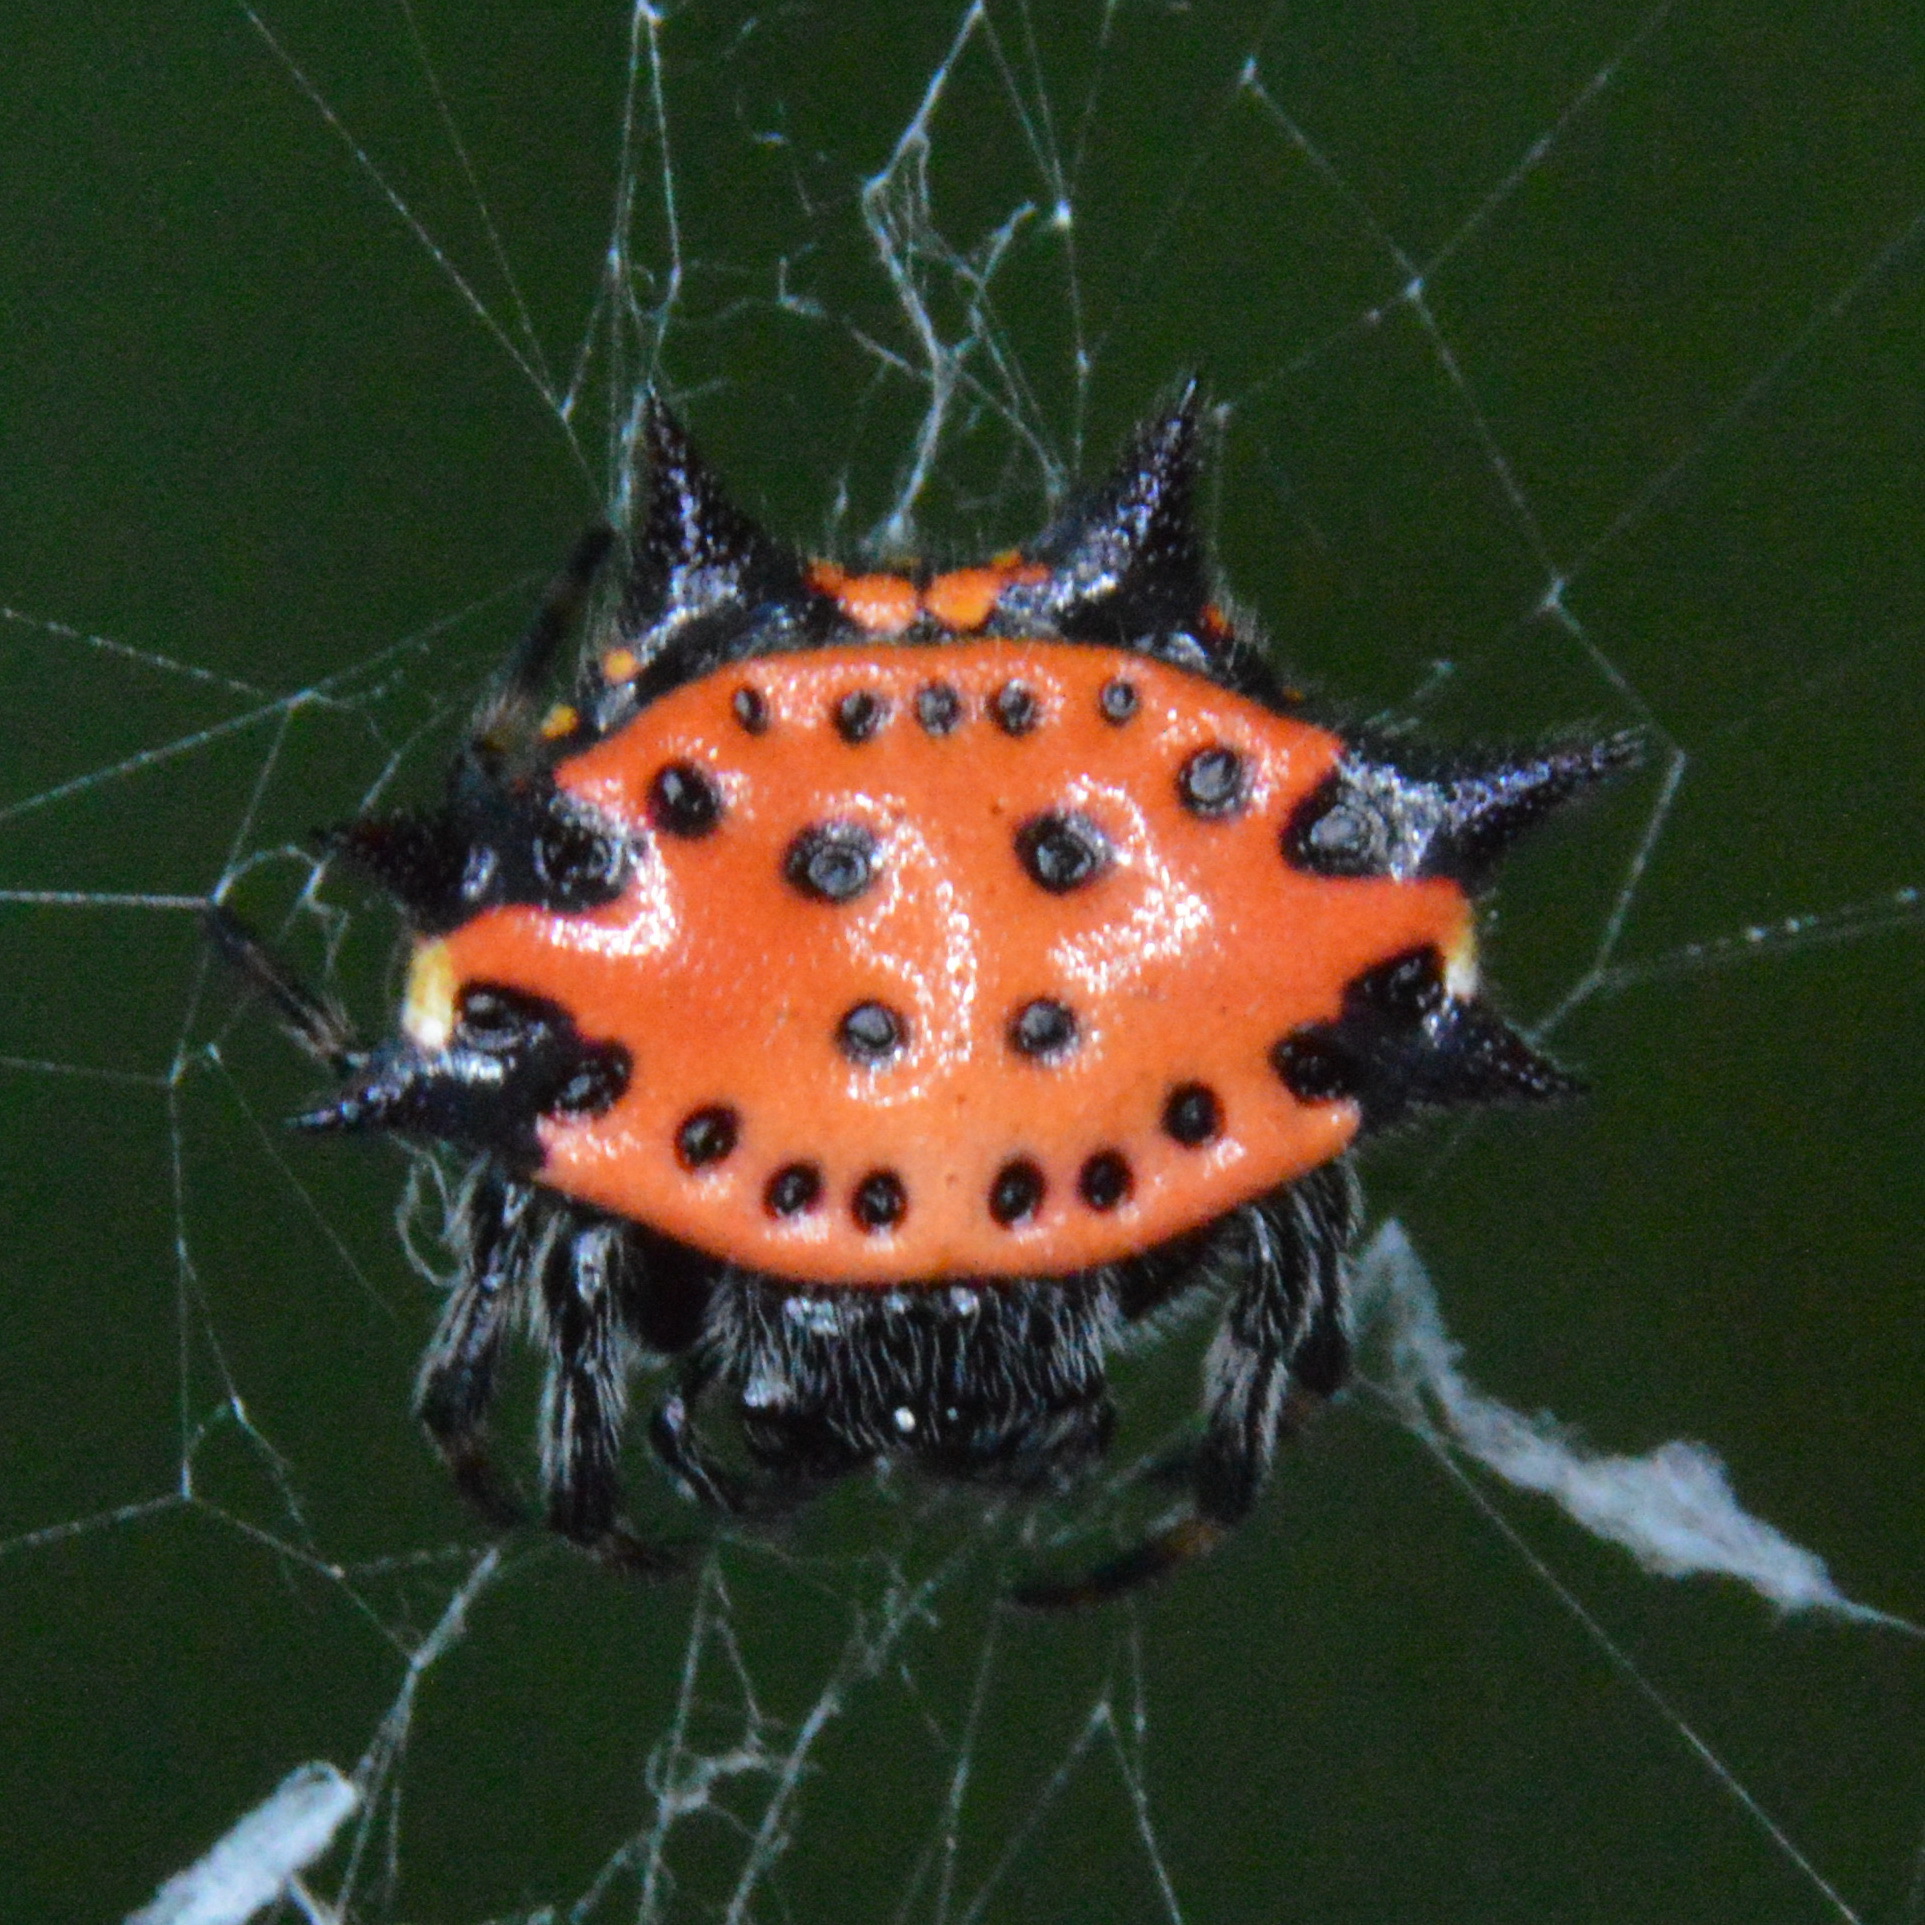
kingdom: Animalia
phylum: Arthropoda
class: Arachnida
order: Araneae
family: Araneidae
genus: Gasteracantha
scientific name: Gasteracantha cancriformis
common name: Orb weavers
